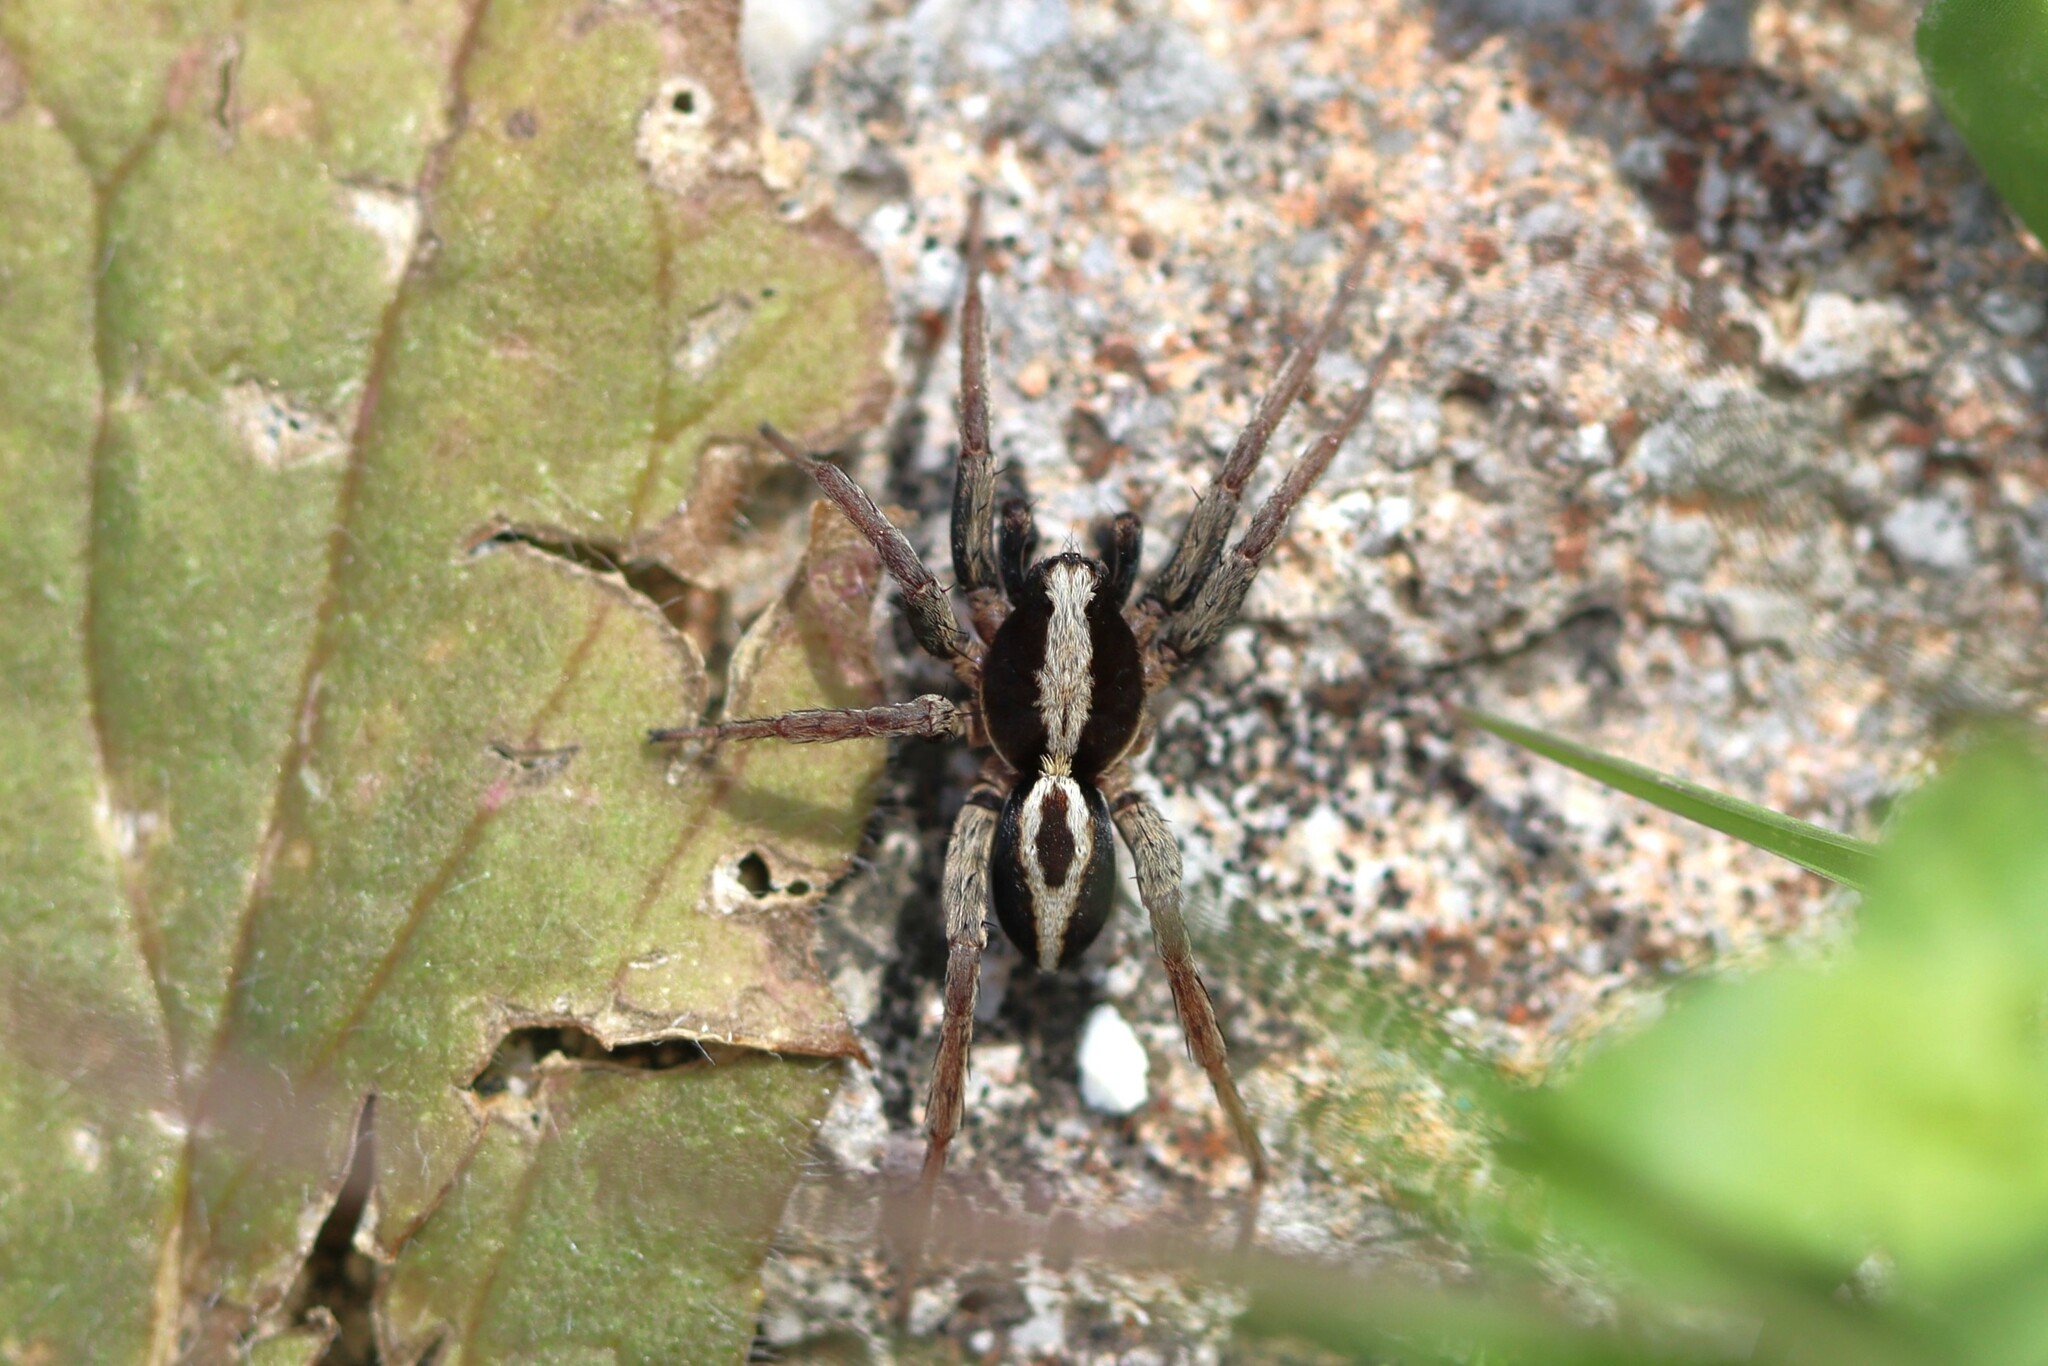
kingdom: Animalia
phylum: Arthropoda
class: Arachnida
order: Araneae
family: Lycosidae
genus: Alopecosa
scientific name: Alopecosa albofasciata
